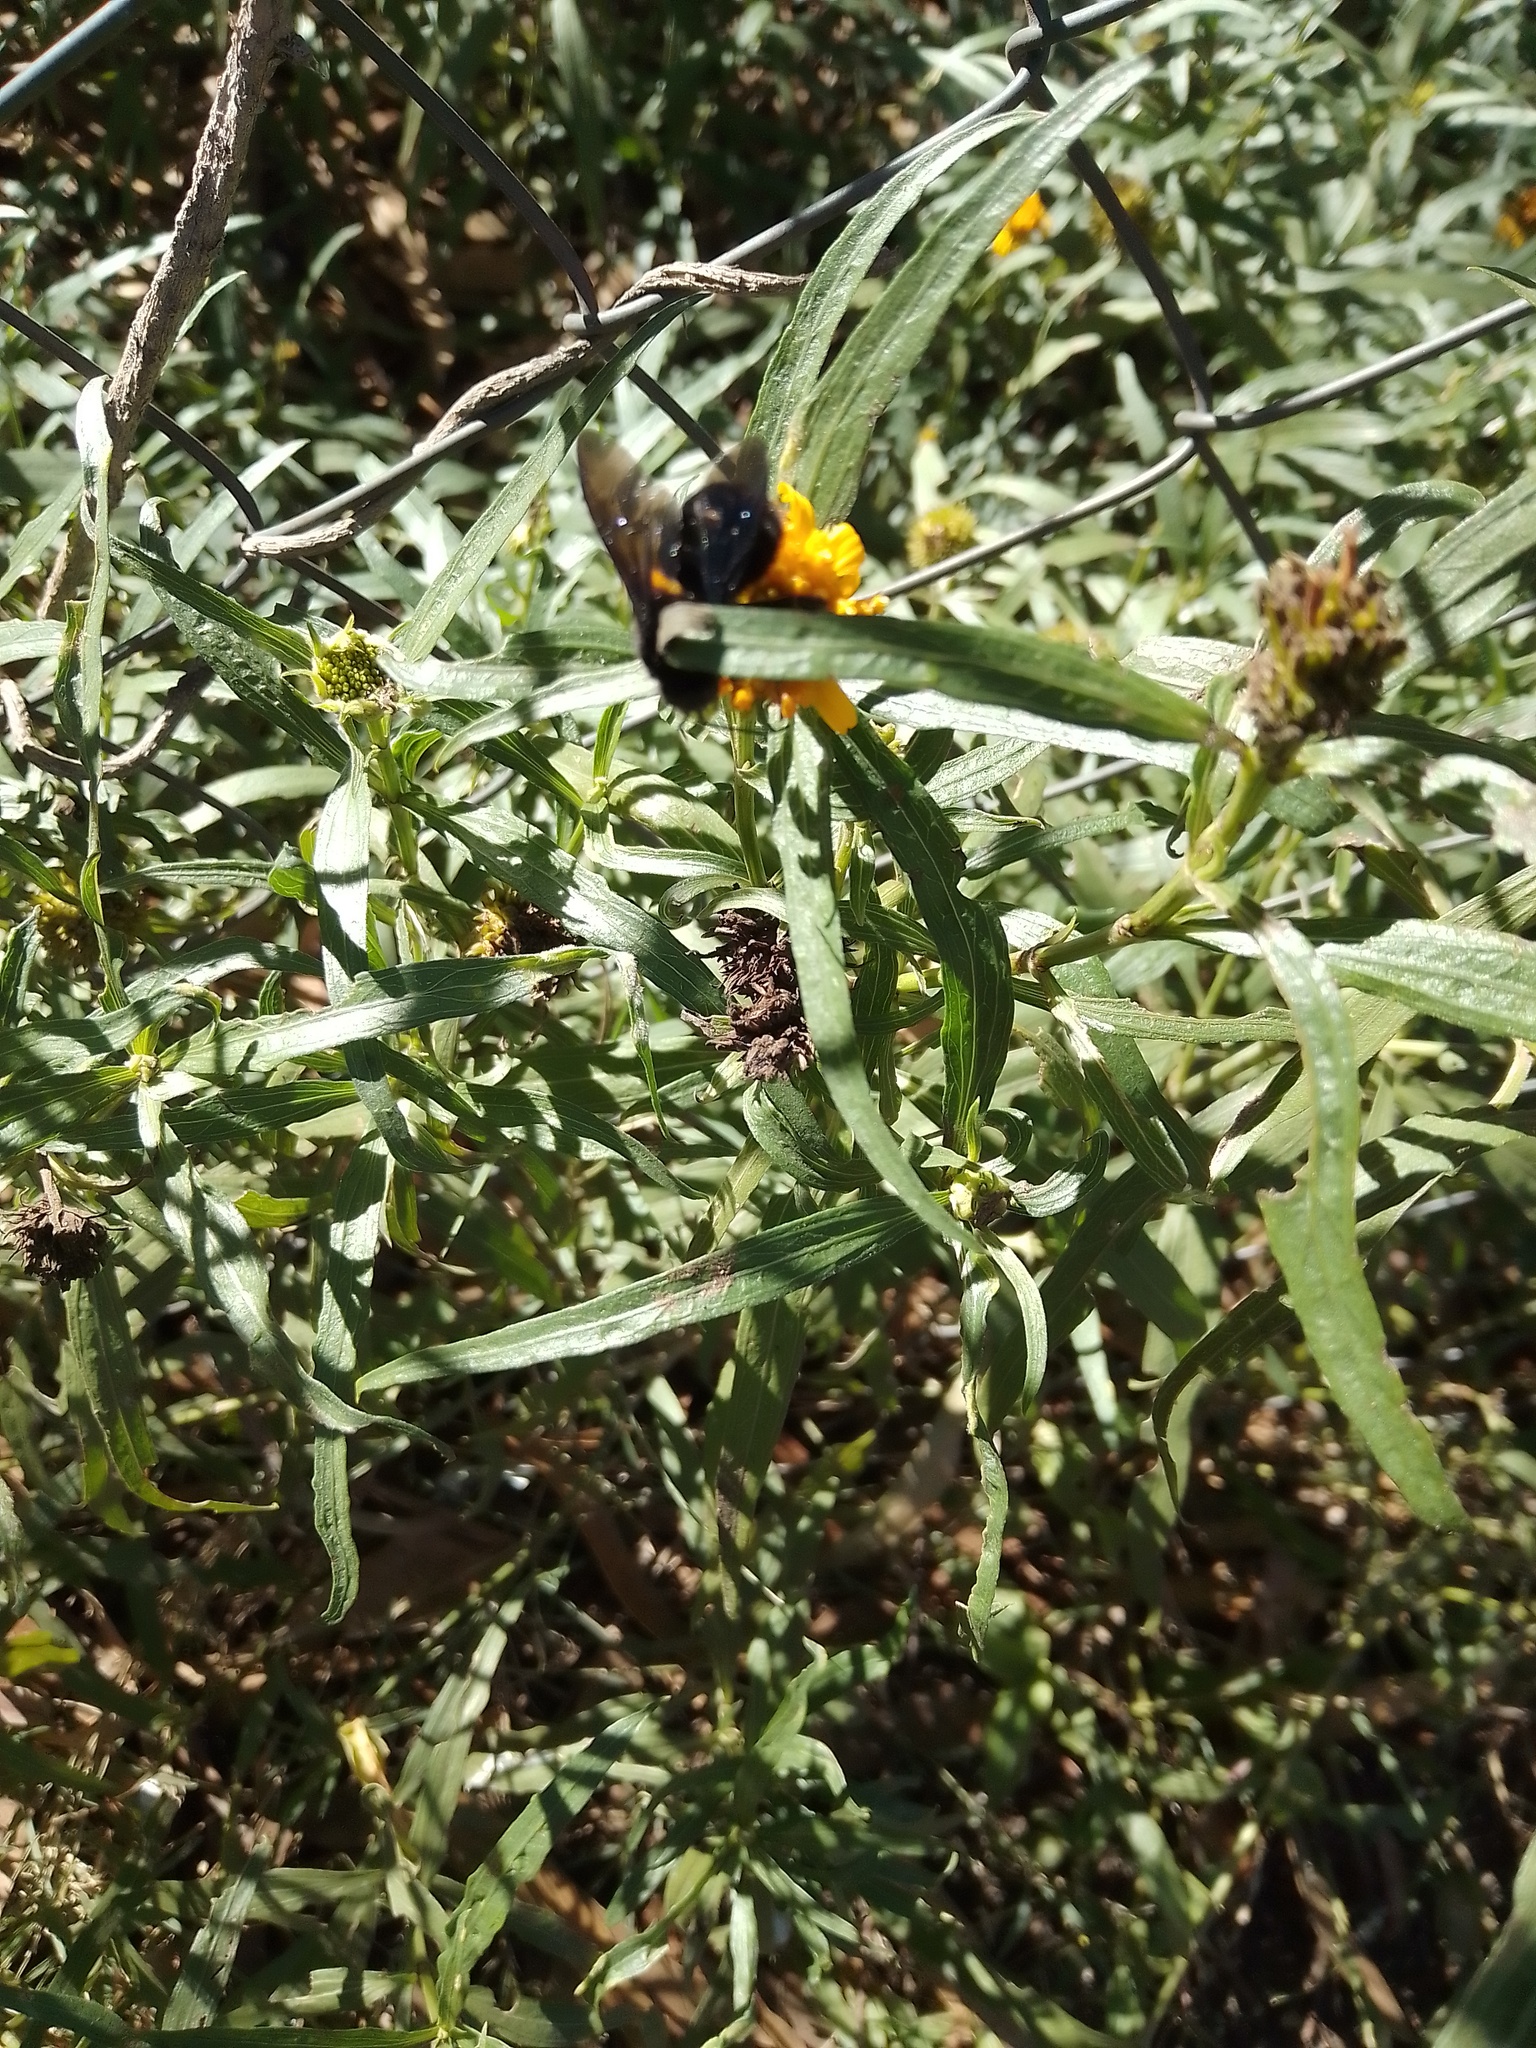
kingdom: Animalia
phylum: Arthropoda
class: Insecta
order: Hymenoptera
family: Apidae
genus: Bombus
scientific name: Bombus pauloensis
